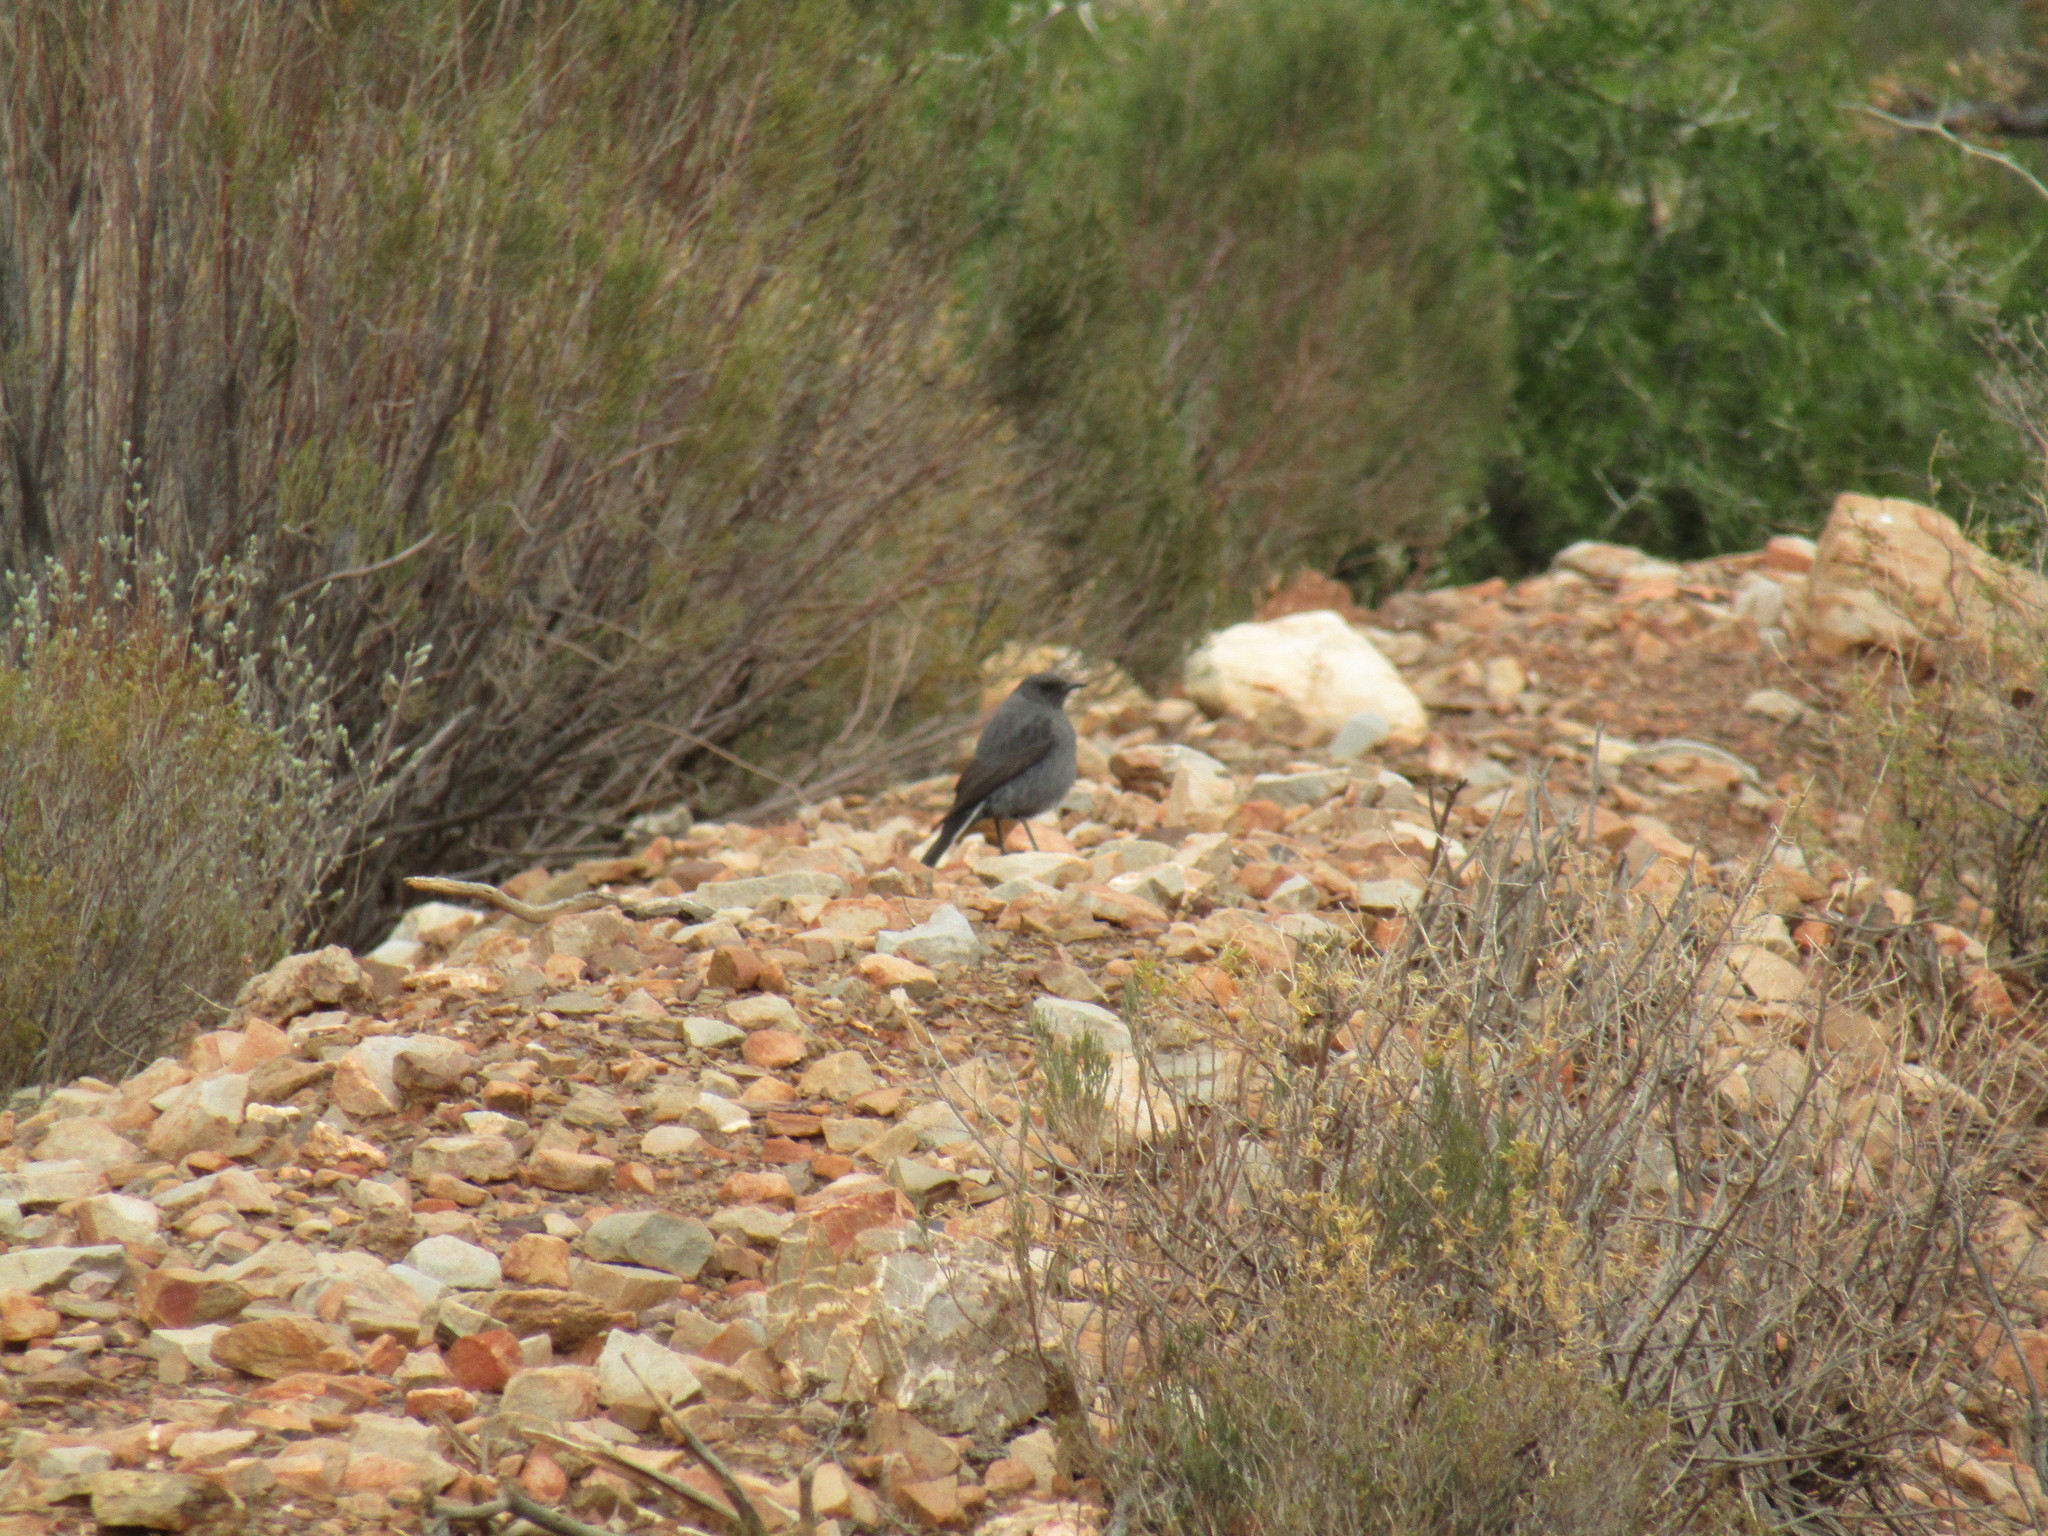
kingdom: Animalia
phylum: Chordata
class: Aves
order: Passeriformes
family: Muscicapidae
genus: Oenanthe
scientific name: Oenanthe monticola
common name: Mountain wheatear
